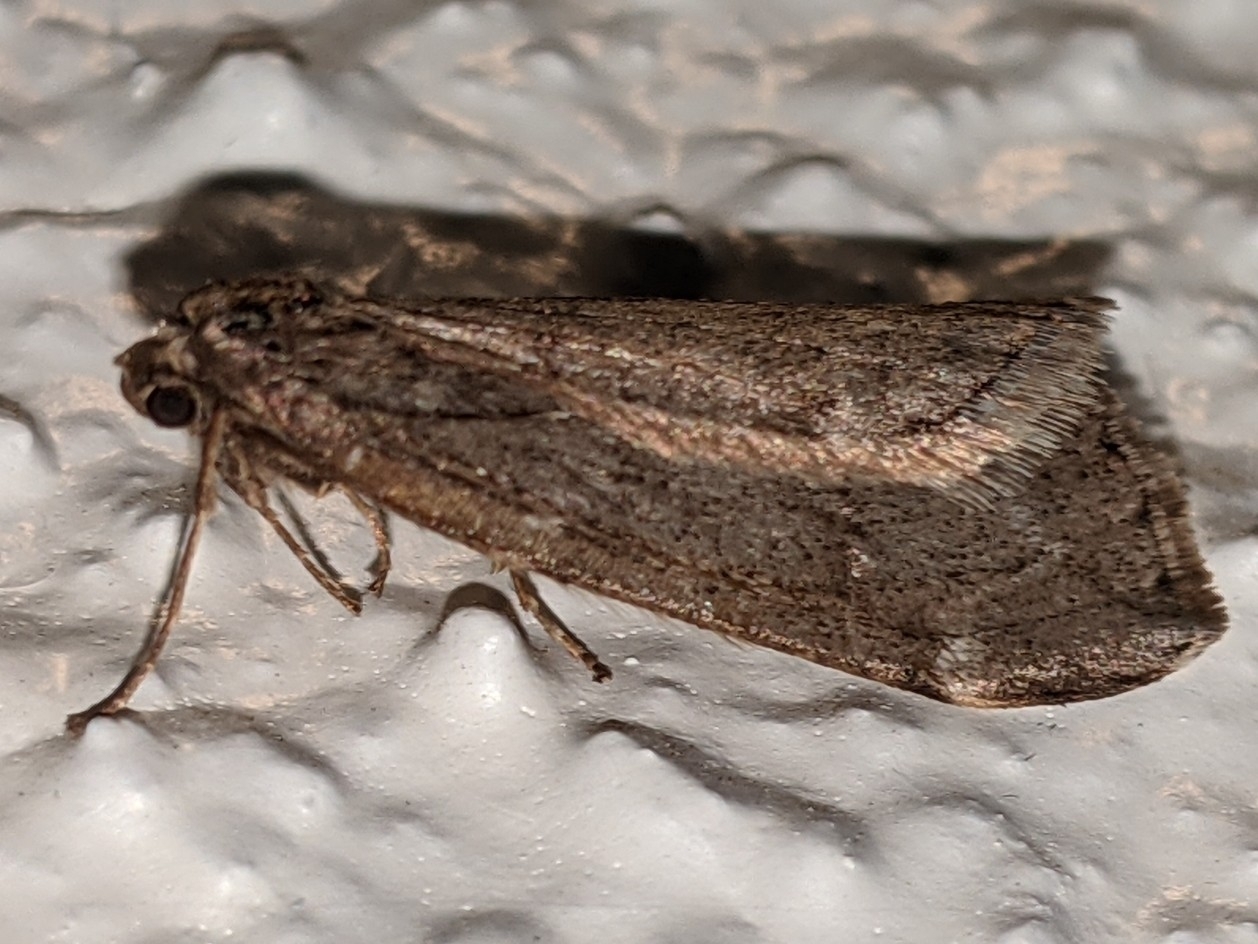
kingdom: Animalia
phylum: Arthropoda
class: Insecta
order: Lepidoptera
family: Geometridae
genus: Alsophila
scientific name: Alsophila pometaria
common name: Fall cankerworm
